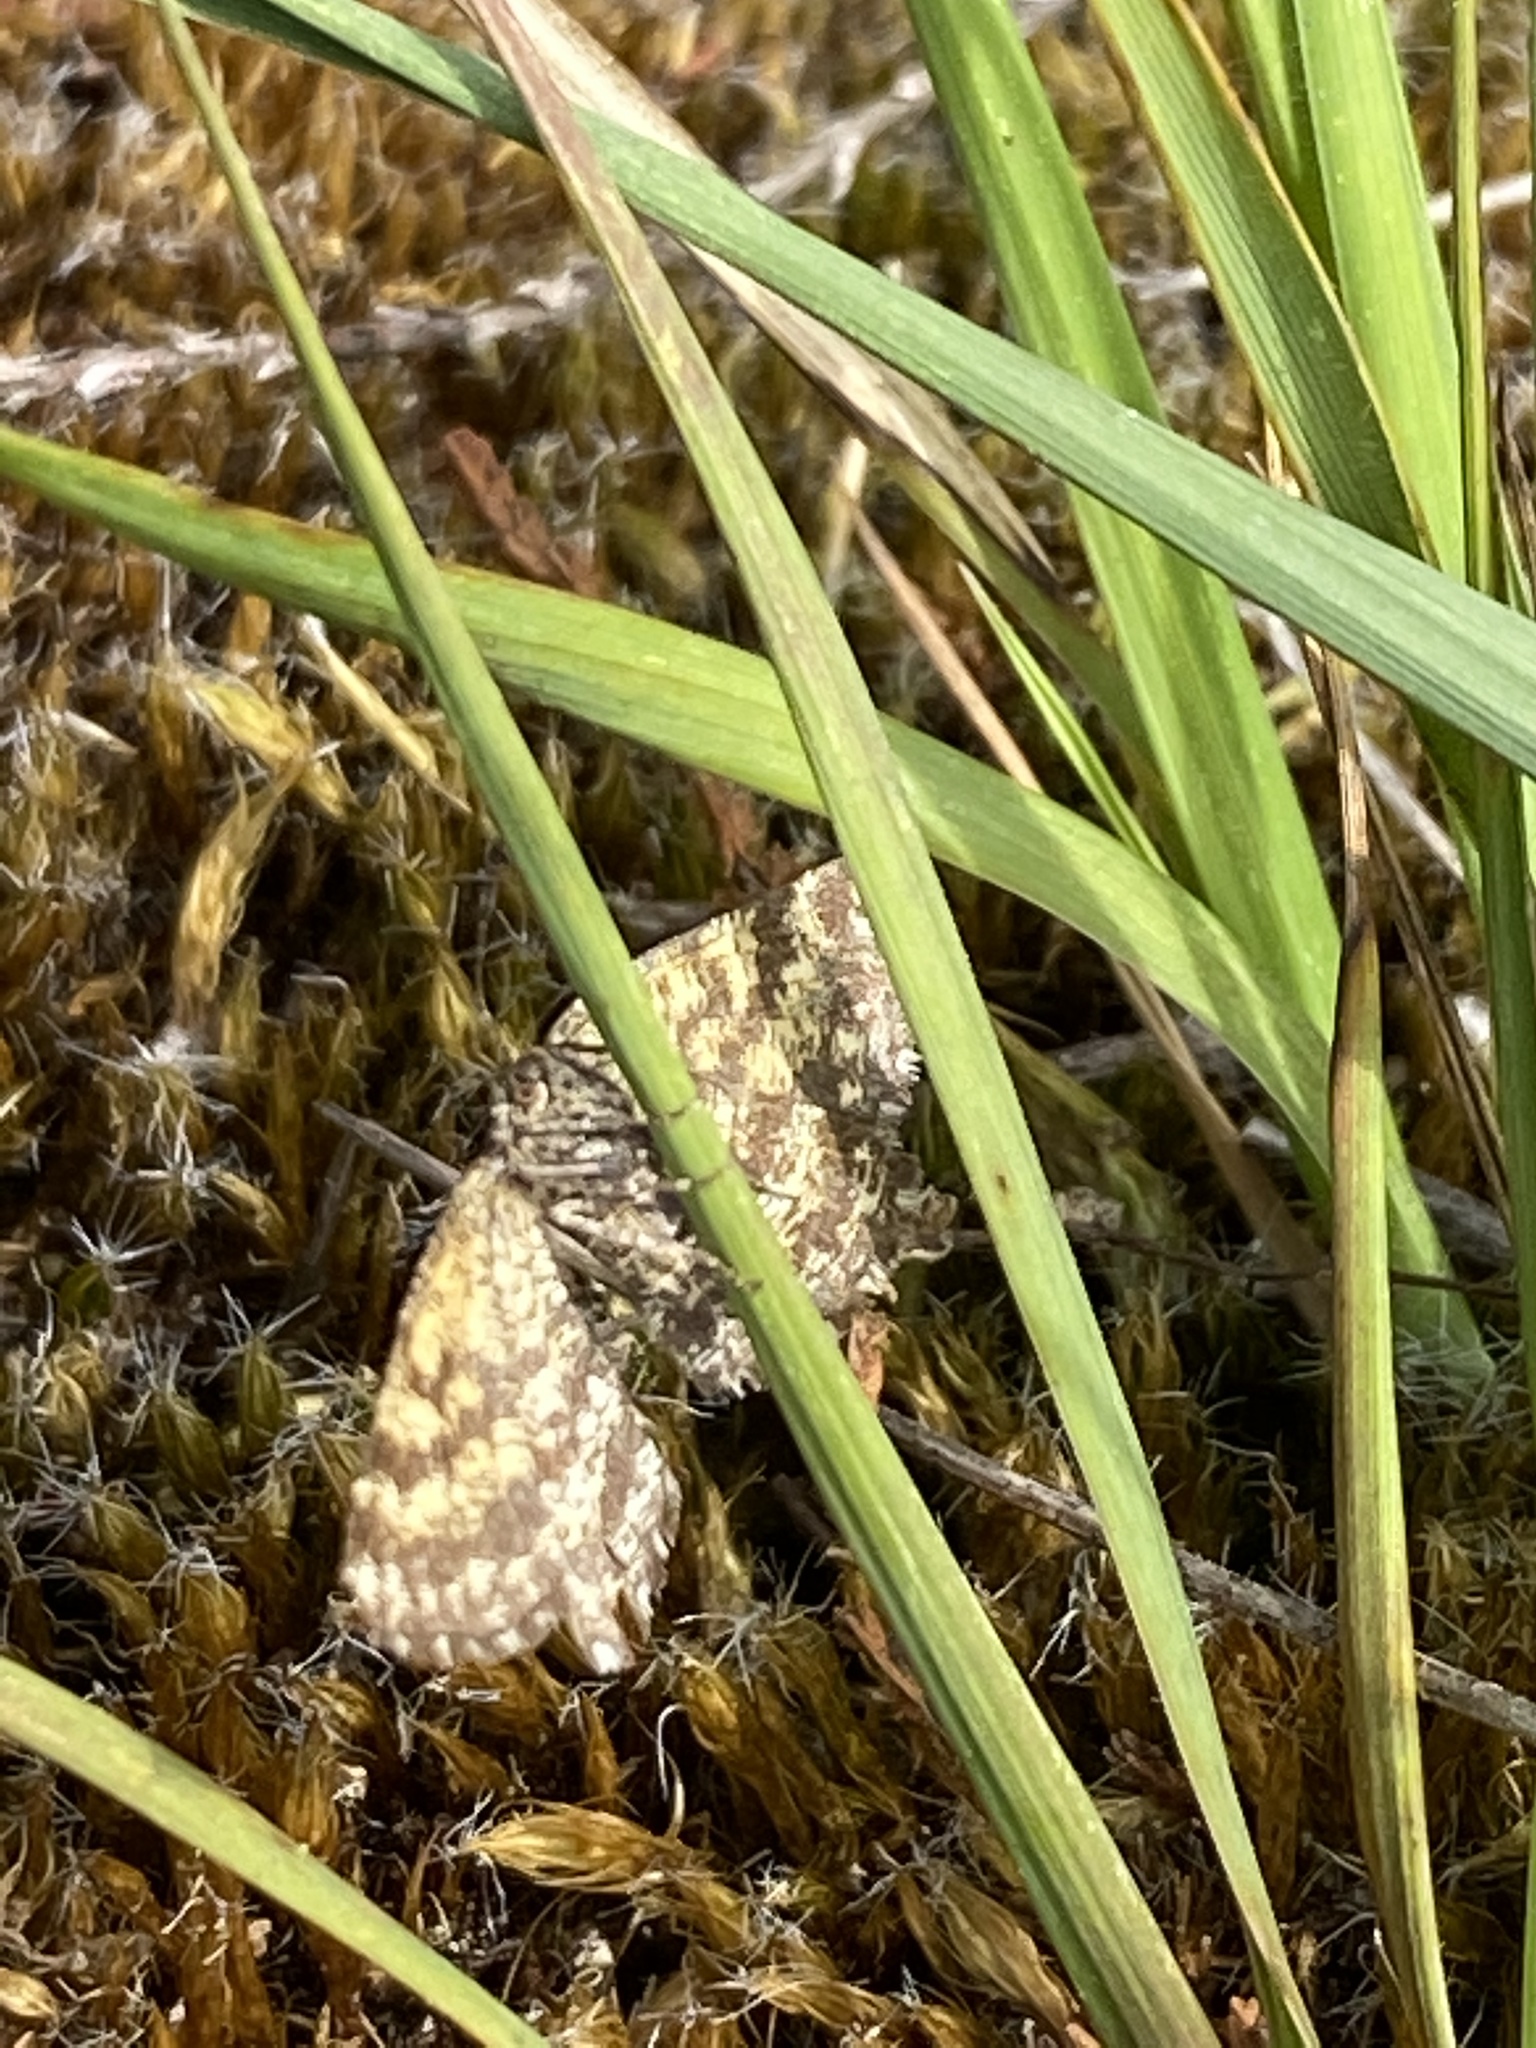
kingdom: Animalia
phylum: Arthropoda
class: Insecta
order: Lepidoptera
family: Geometridae
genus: Ematurga
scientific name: Ematurga atomaria
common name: Common heath
